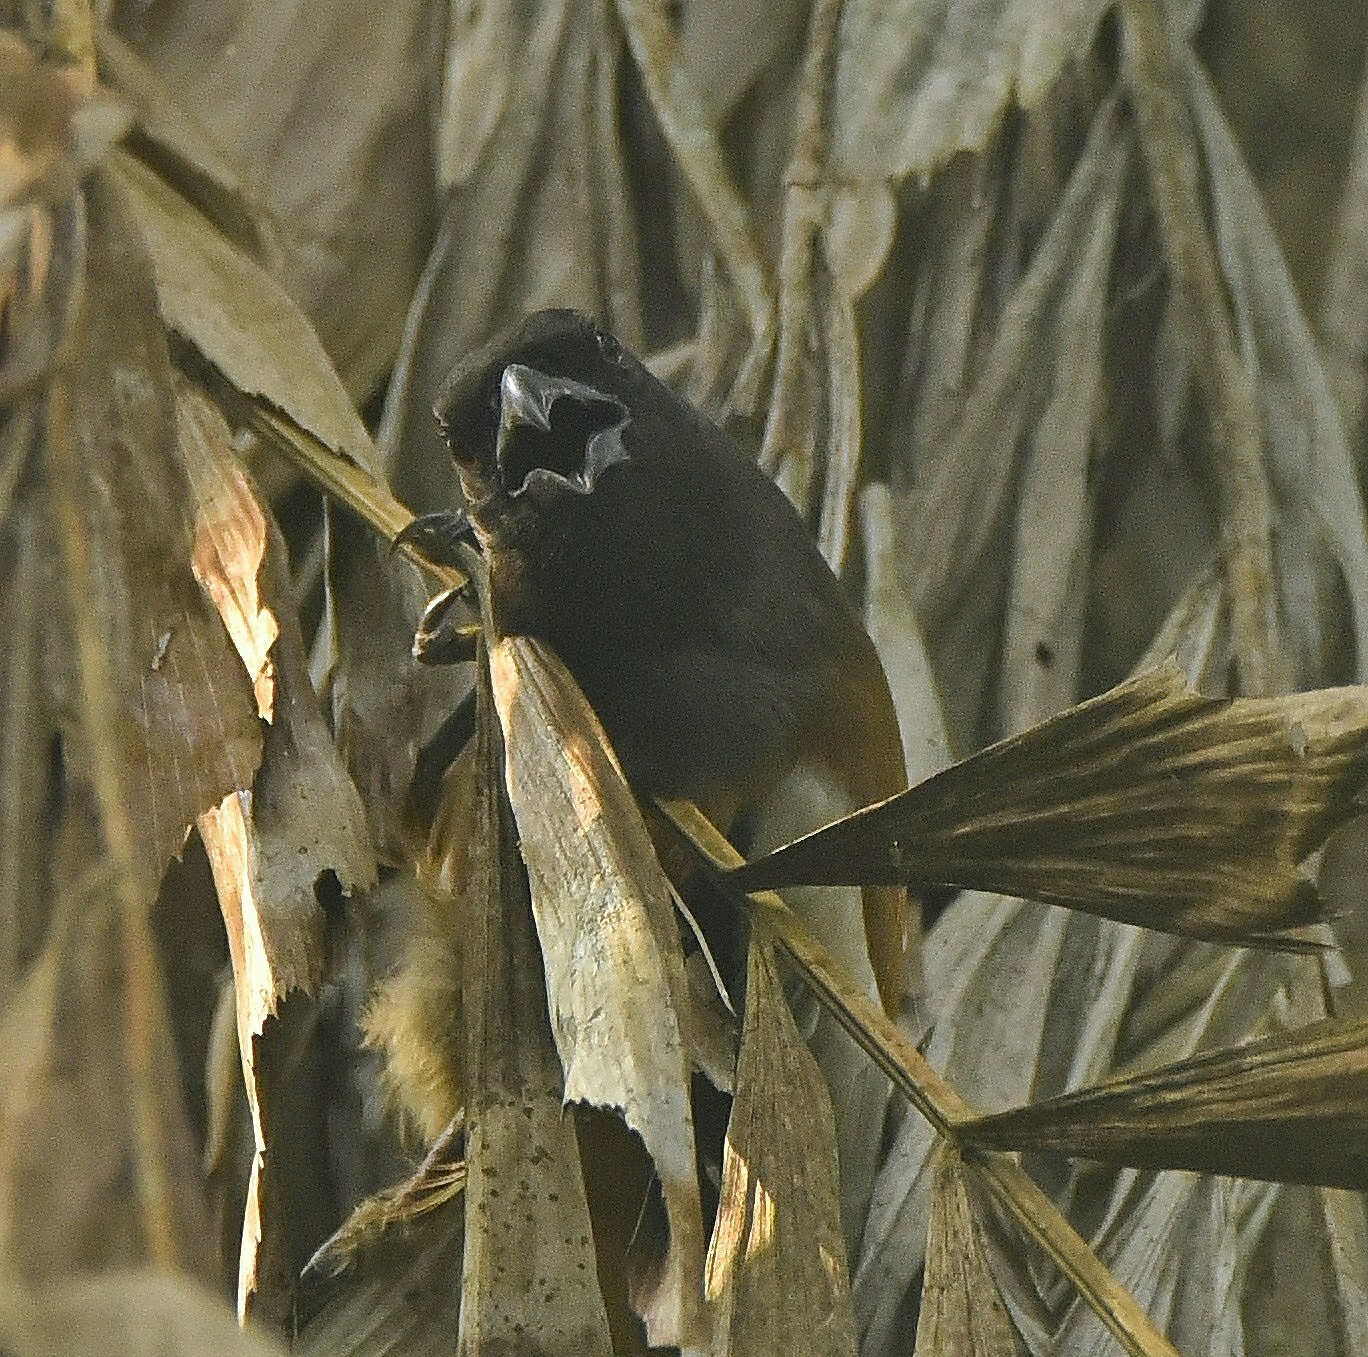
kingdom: Animalia
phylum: Chordata
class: Aves
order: Passeriformes
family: Corvidae
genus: Dendrocitta
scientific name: Dendrocitta vagabunda
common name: Rufous treepie
